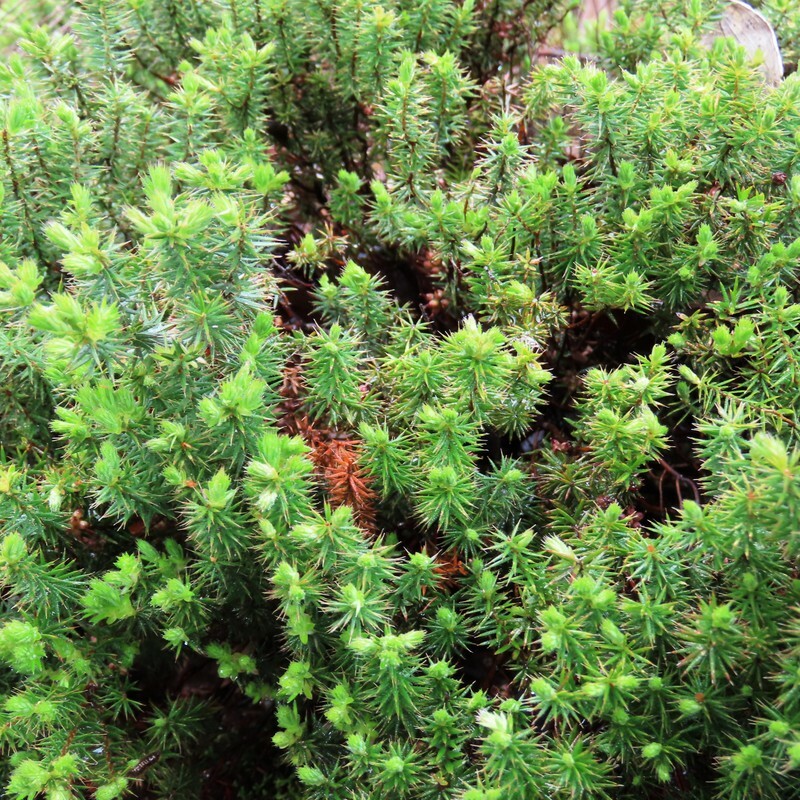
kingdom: Plantae
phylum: Tracheophyta
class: Magnoliopsida
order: Ericales
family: Ericaceae
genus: Acrotriche
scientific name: Acrotriche serrulata
